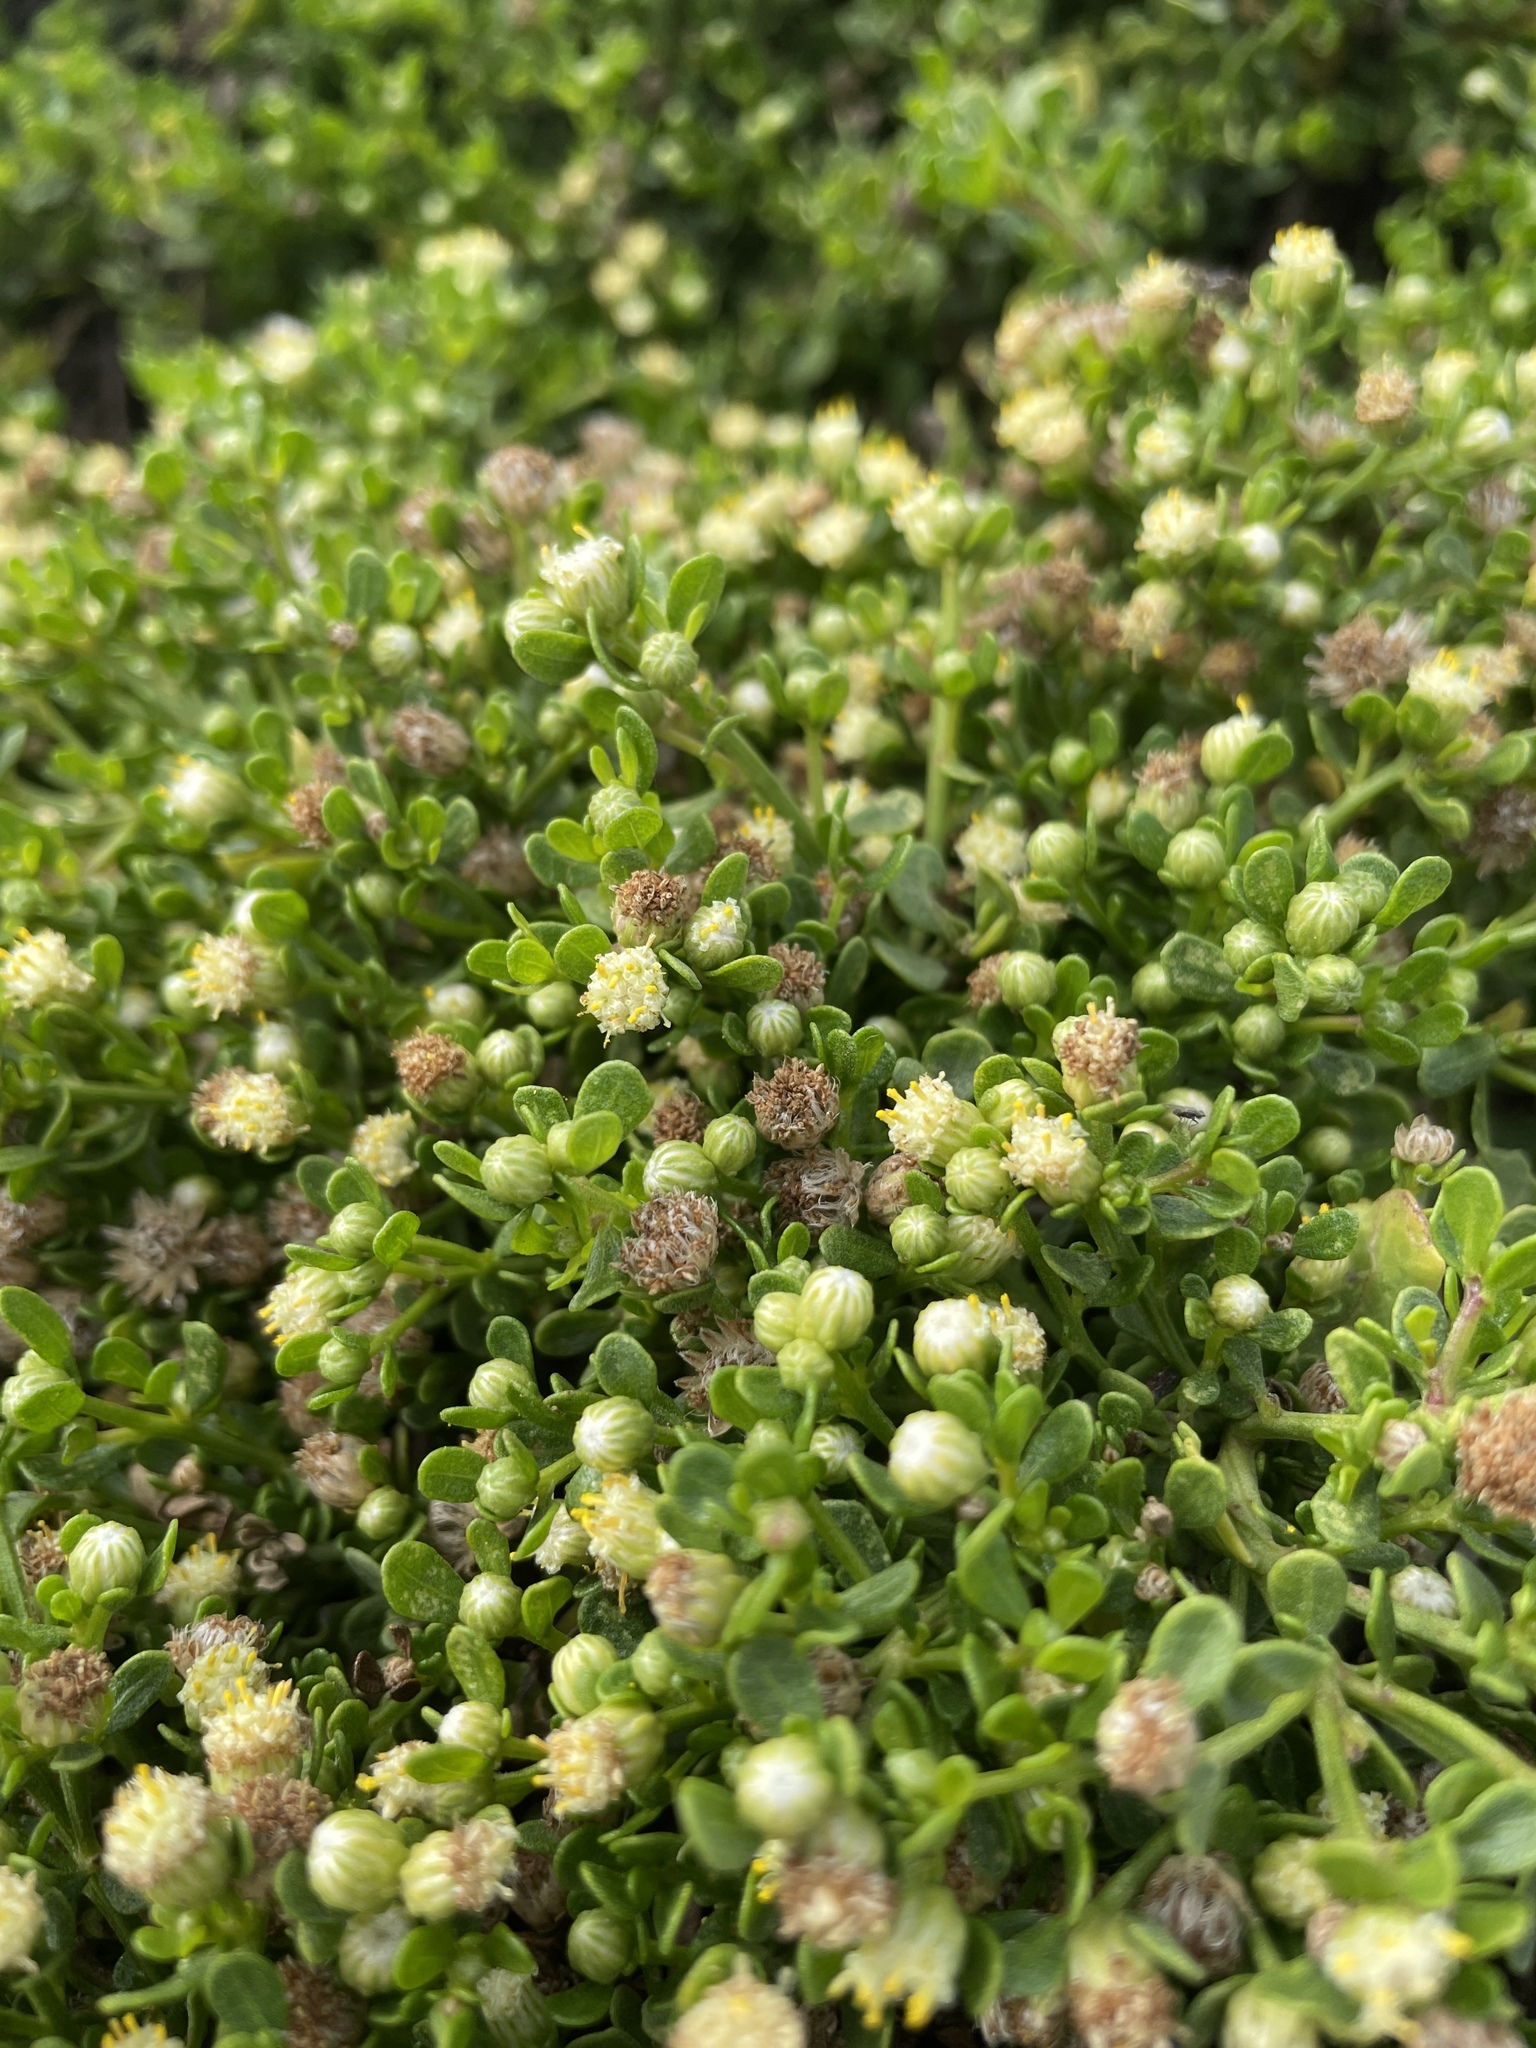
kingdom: Plantae
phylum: Tracheophyta
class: Magnoliopsida
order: Asterales
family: Asteraceae
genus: Baccharis
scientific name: Baccharis pilularis
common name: Coyotebrush
